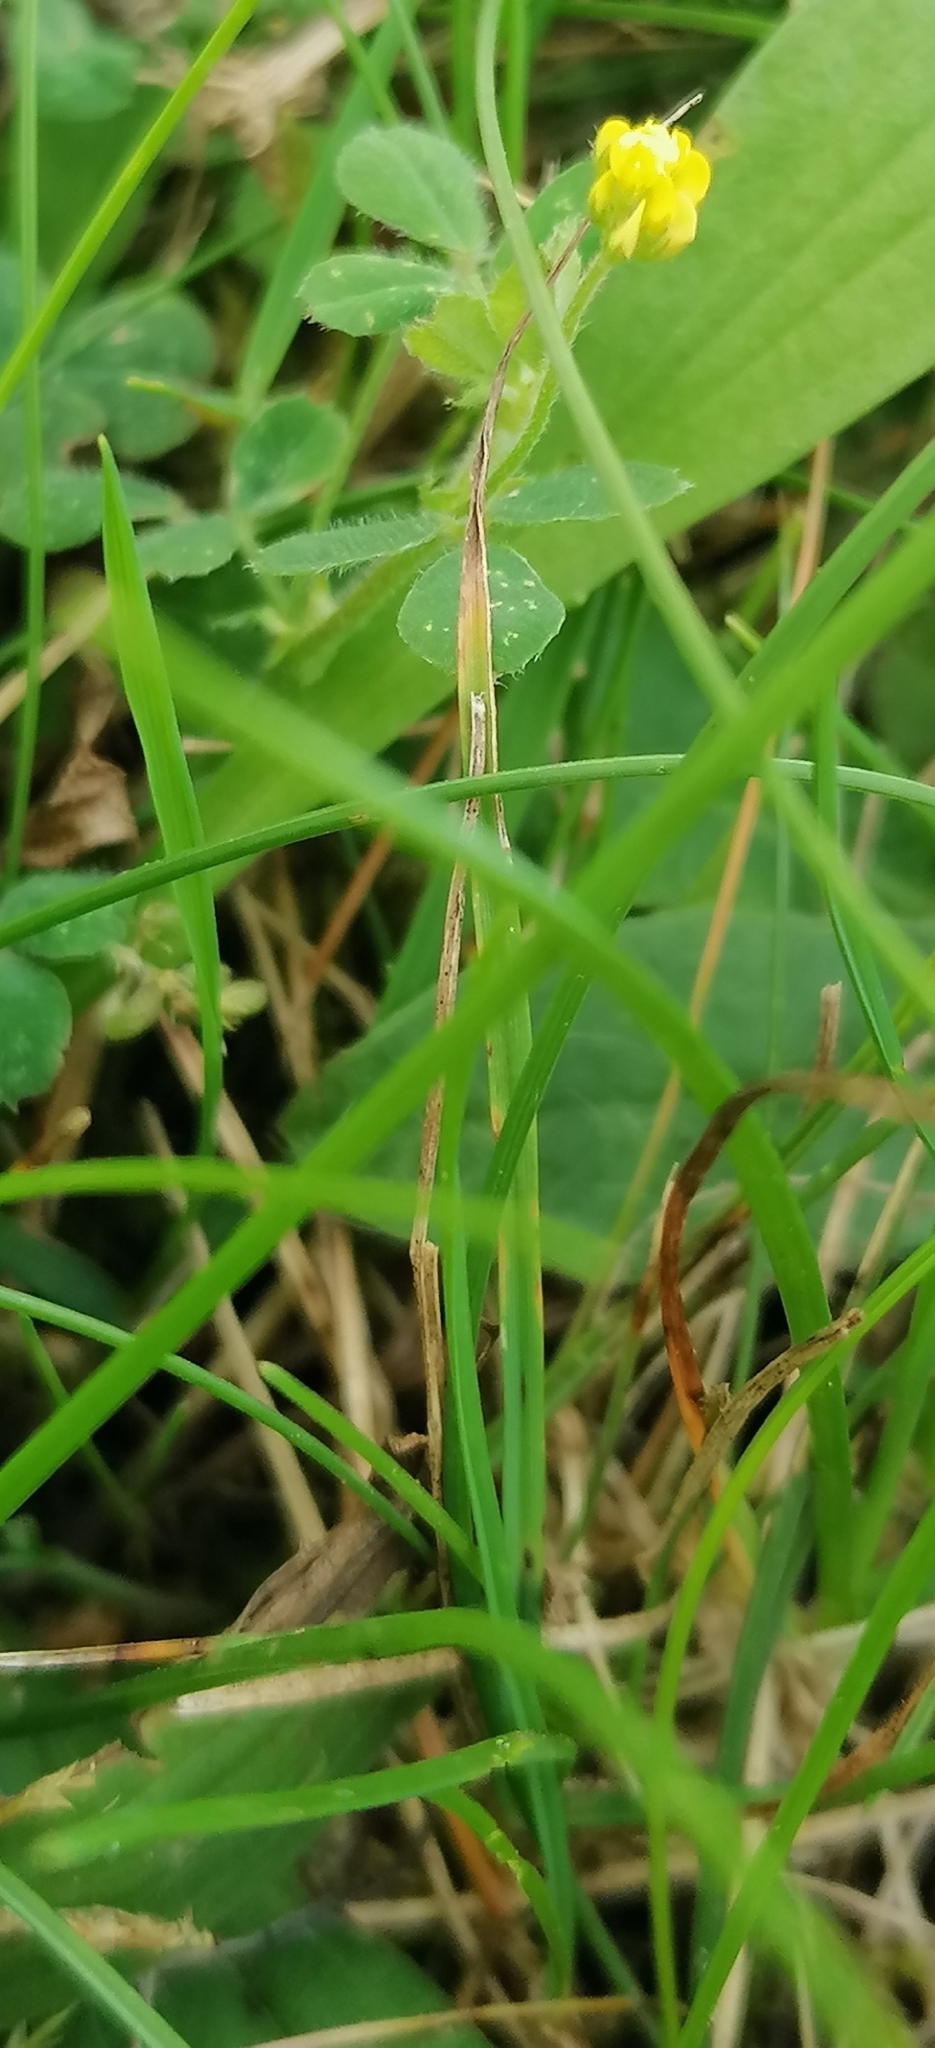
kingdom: Plantae
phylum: Tracheophyta
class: Magnoliopsida
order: Fabales
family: Fabaceae
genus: Medicago
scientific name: Medicago lupulina
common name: Black medick
